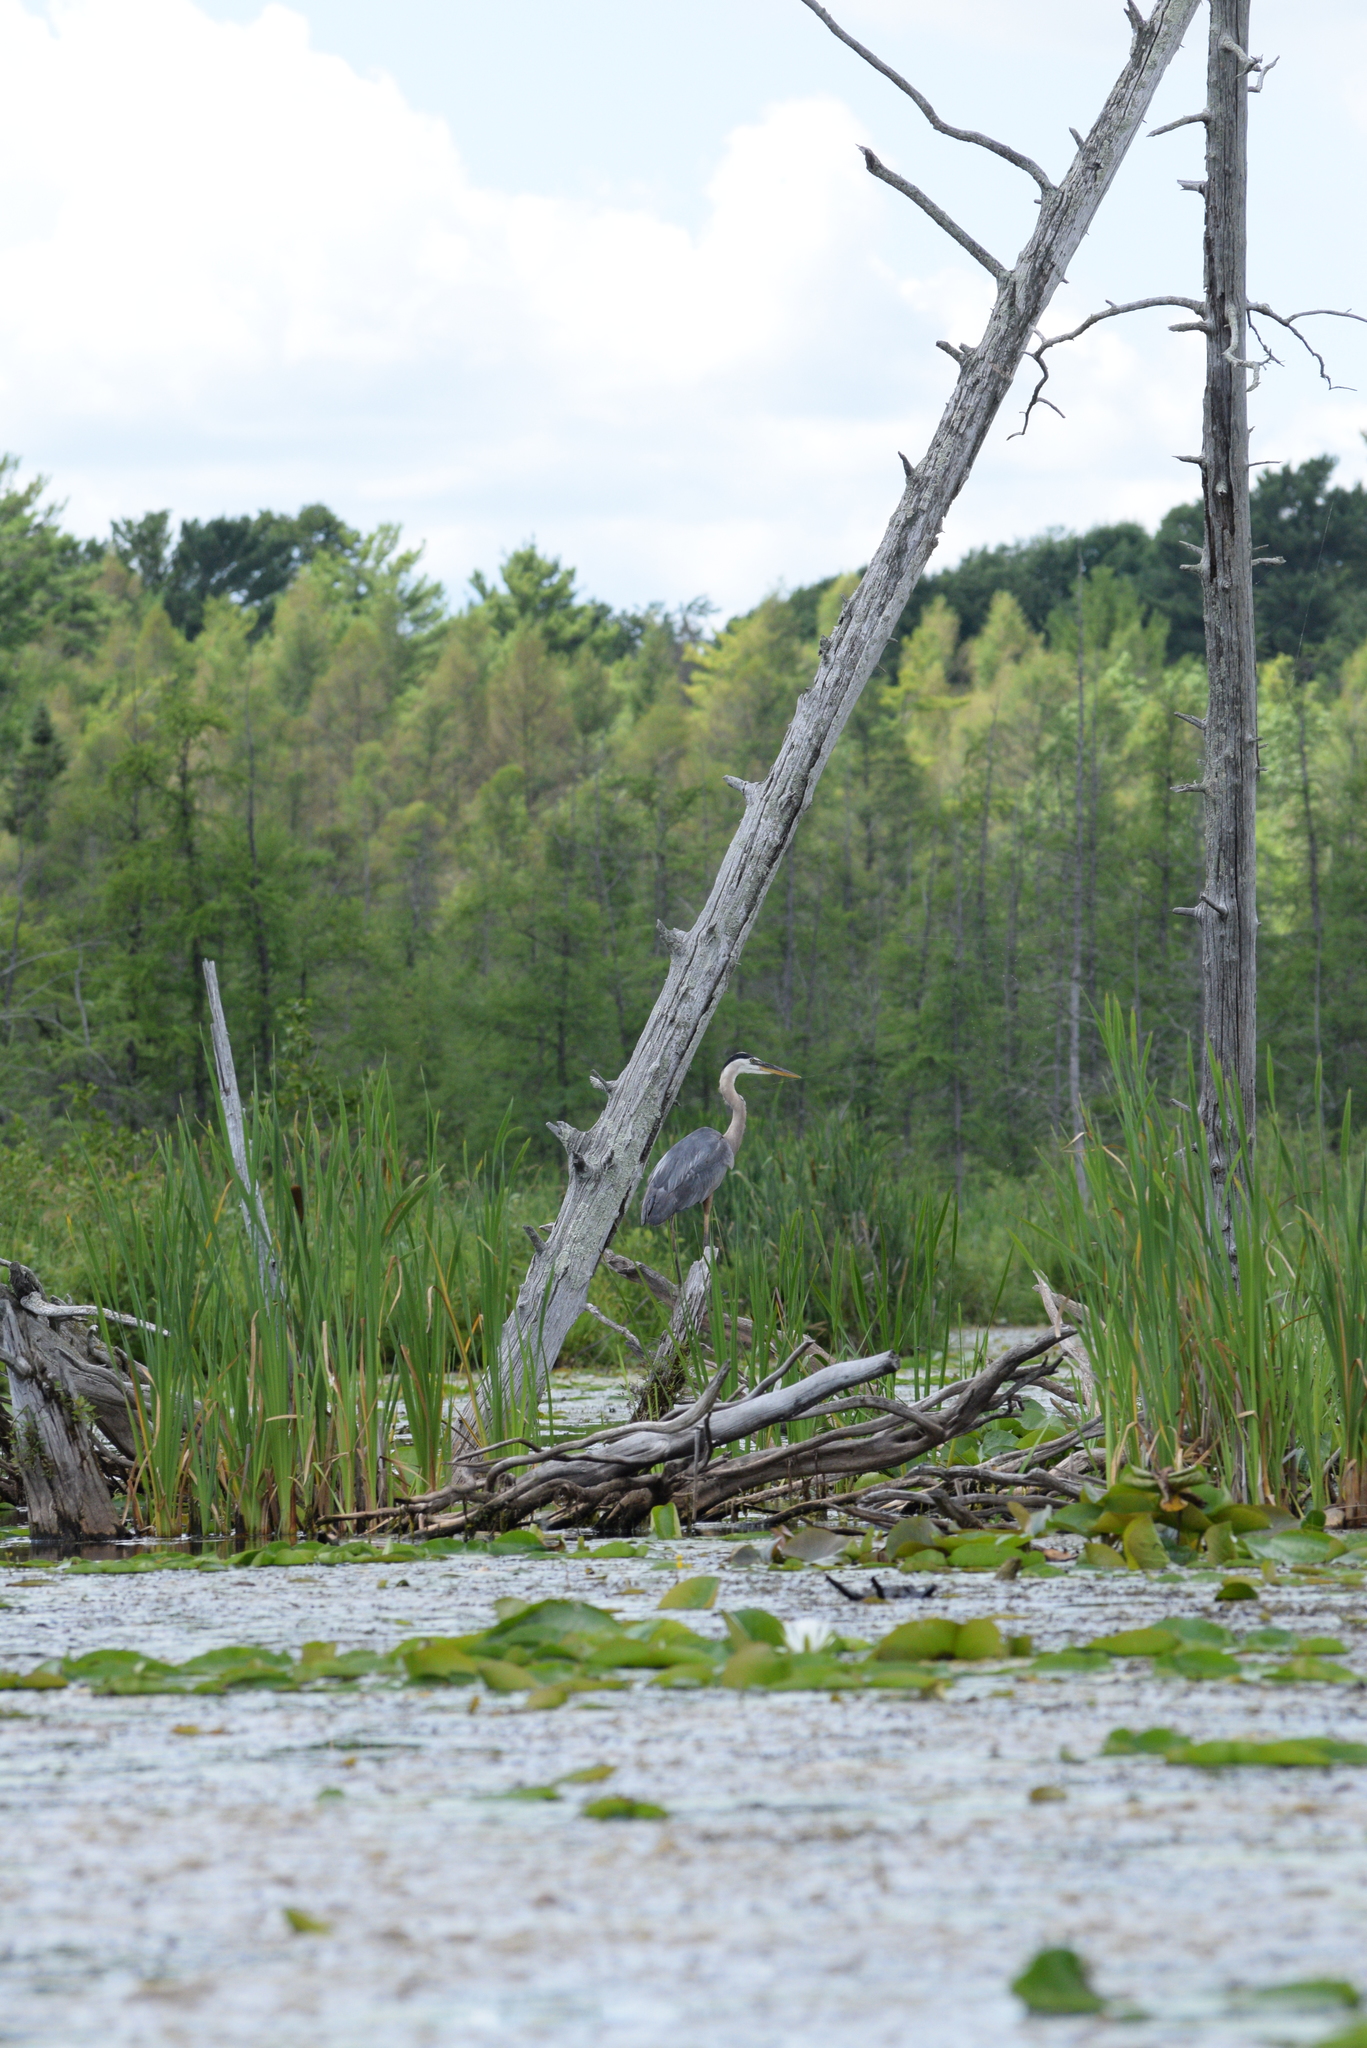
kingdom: Animalia
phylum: Chordata
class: Aves
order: Pelecaniformes
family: Ardeidae
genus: Ardea
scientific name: Ardea herodias
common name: Great blue heron
